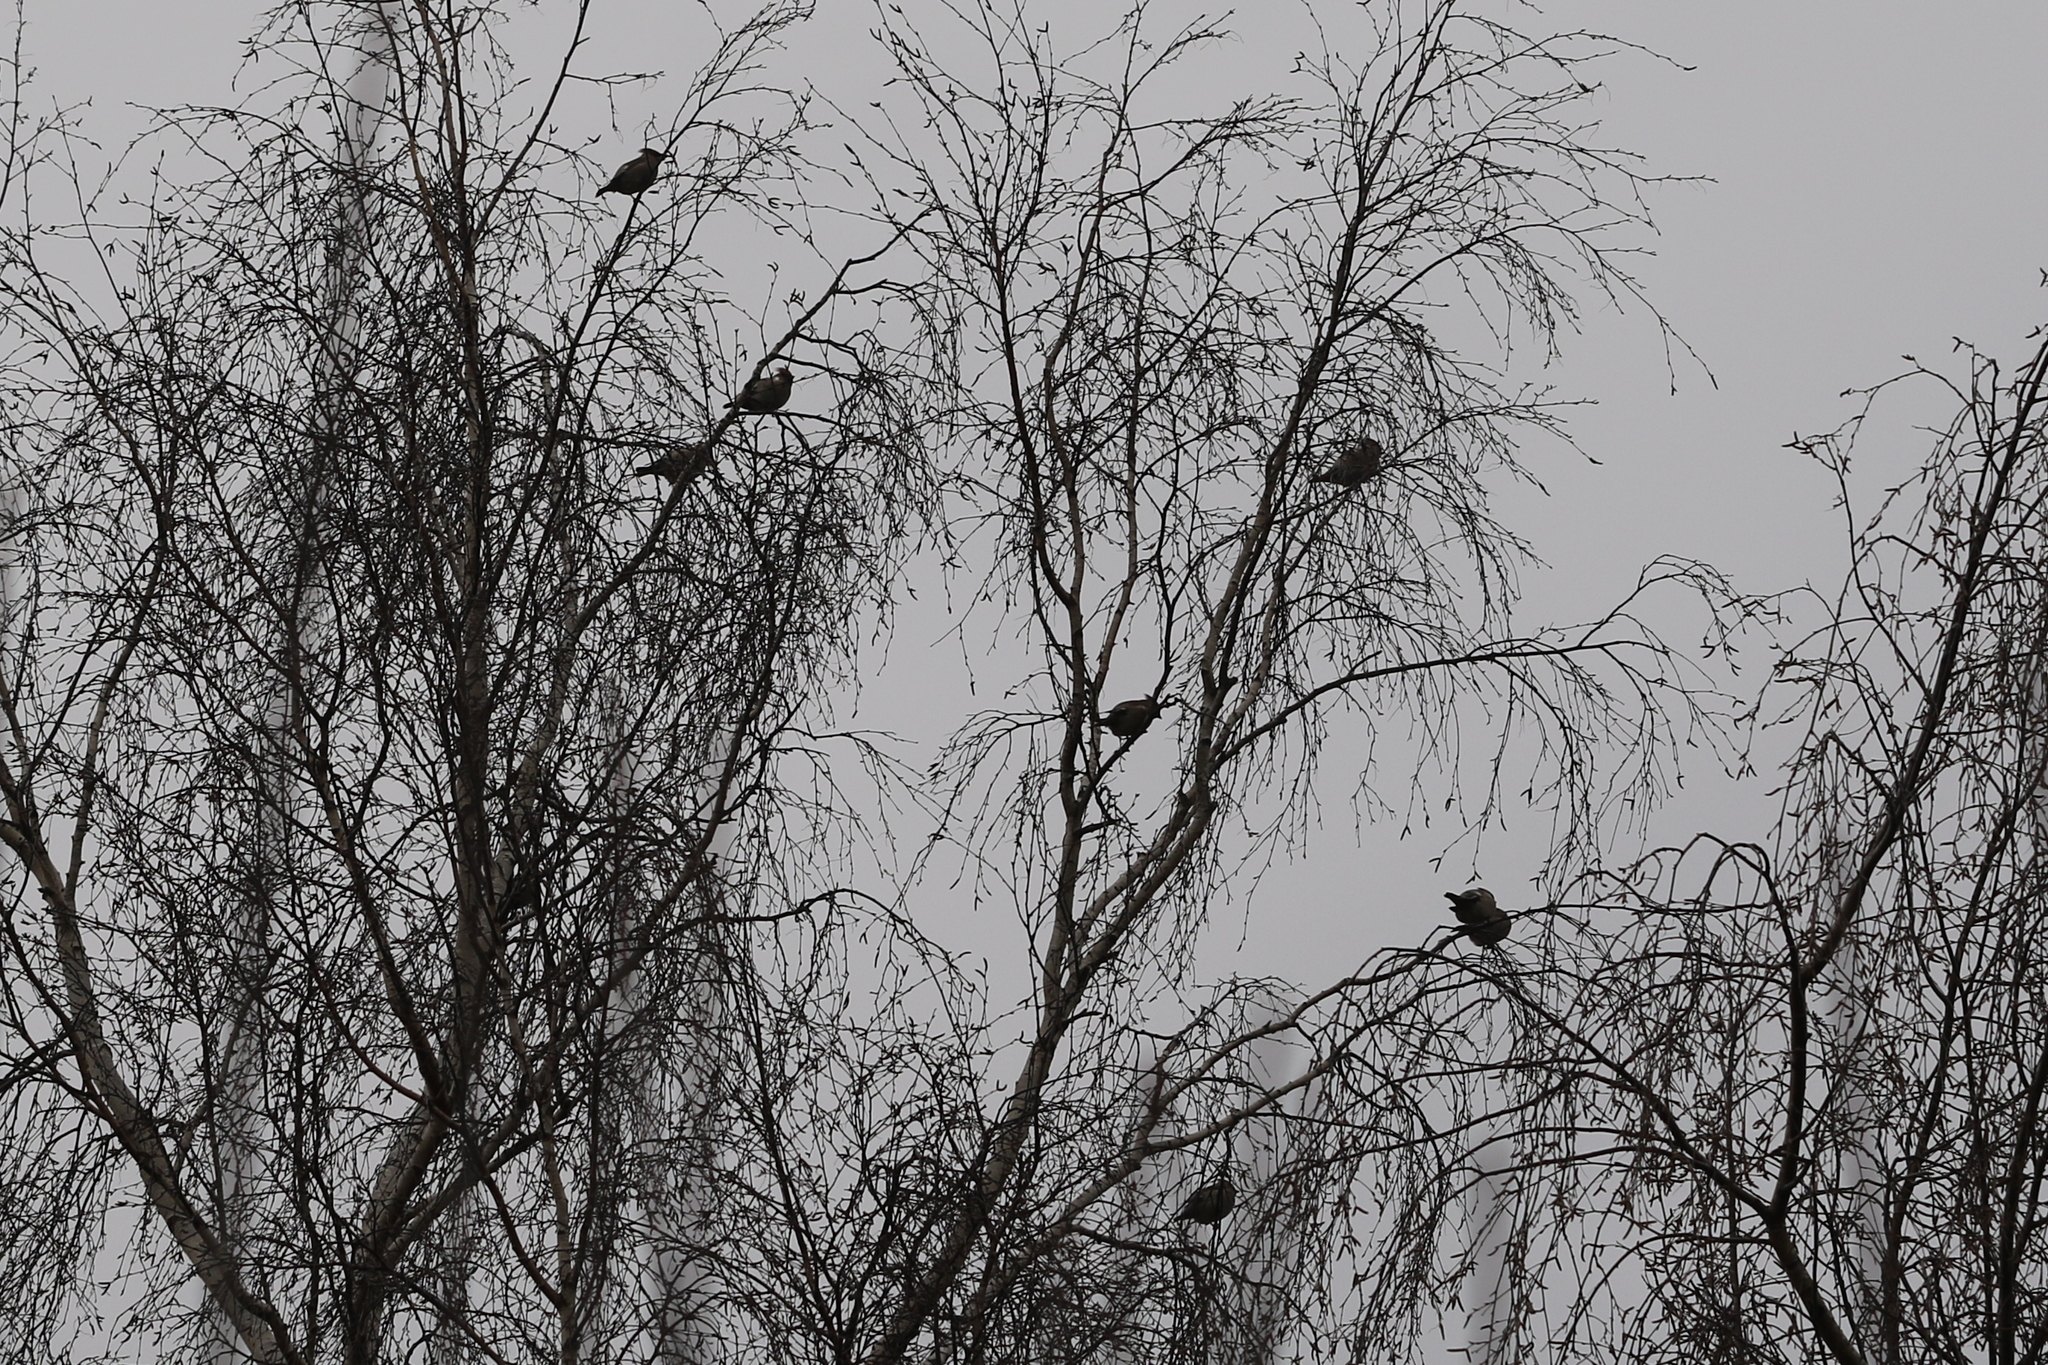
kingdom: Animalia
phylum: Chordata
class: Aves
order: Passeriformes
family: Bombycillidae
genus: Bombycilla
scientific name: Bombycilla garrulus
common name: Bohemian waxwing
